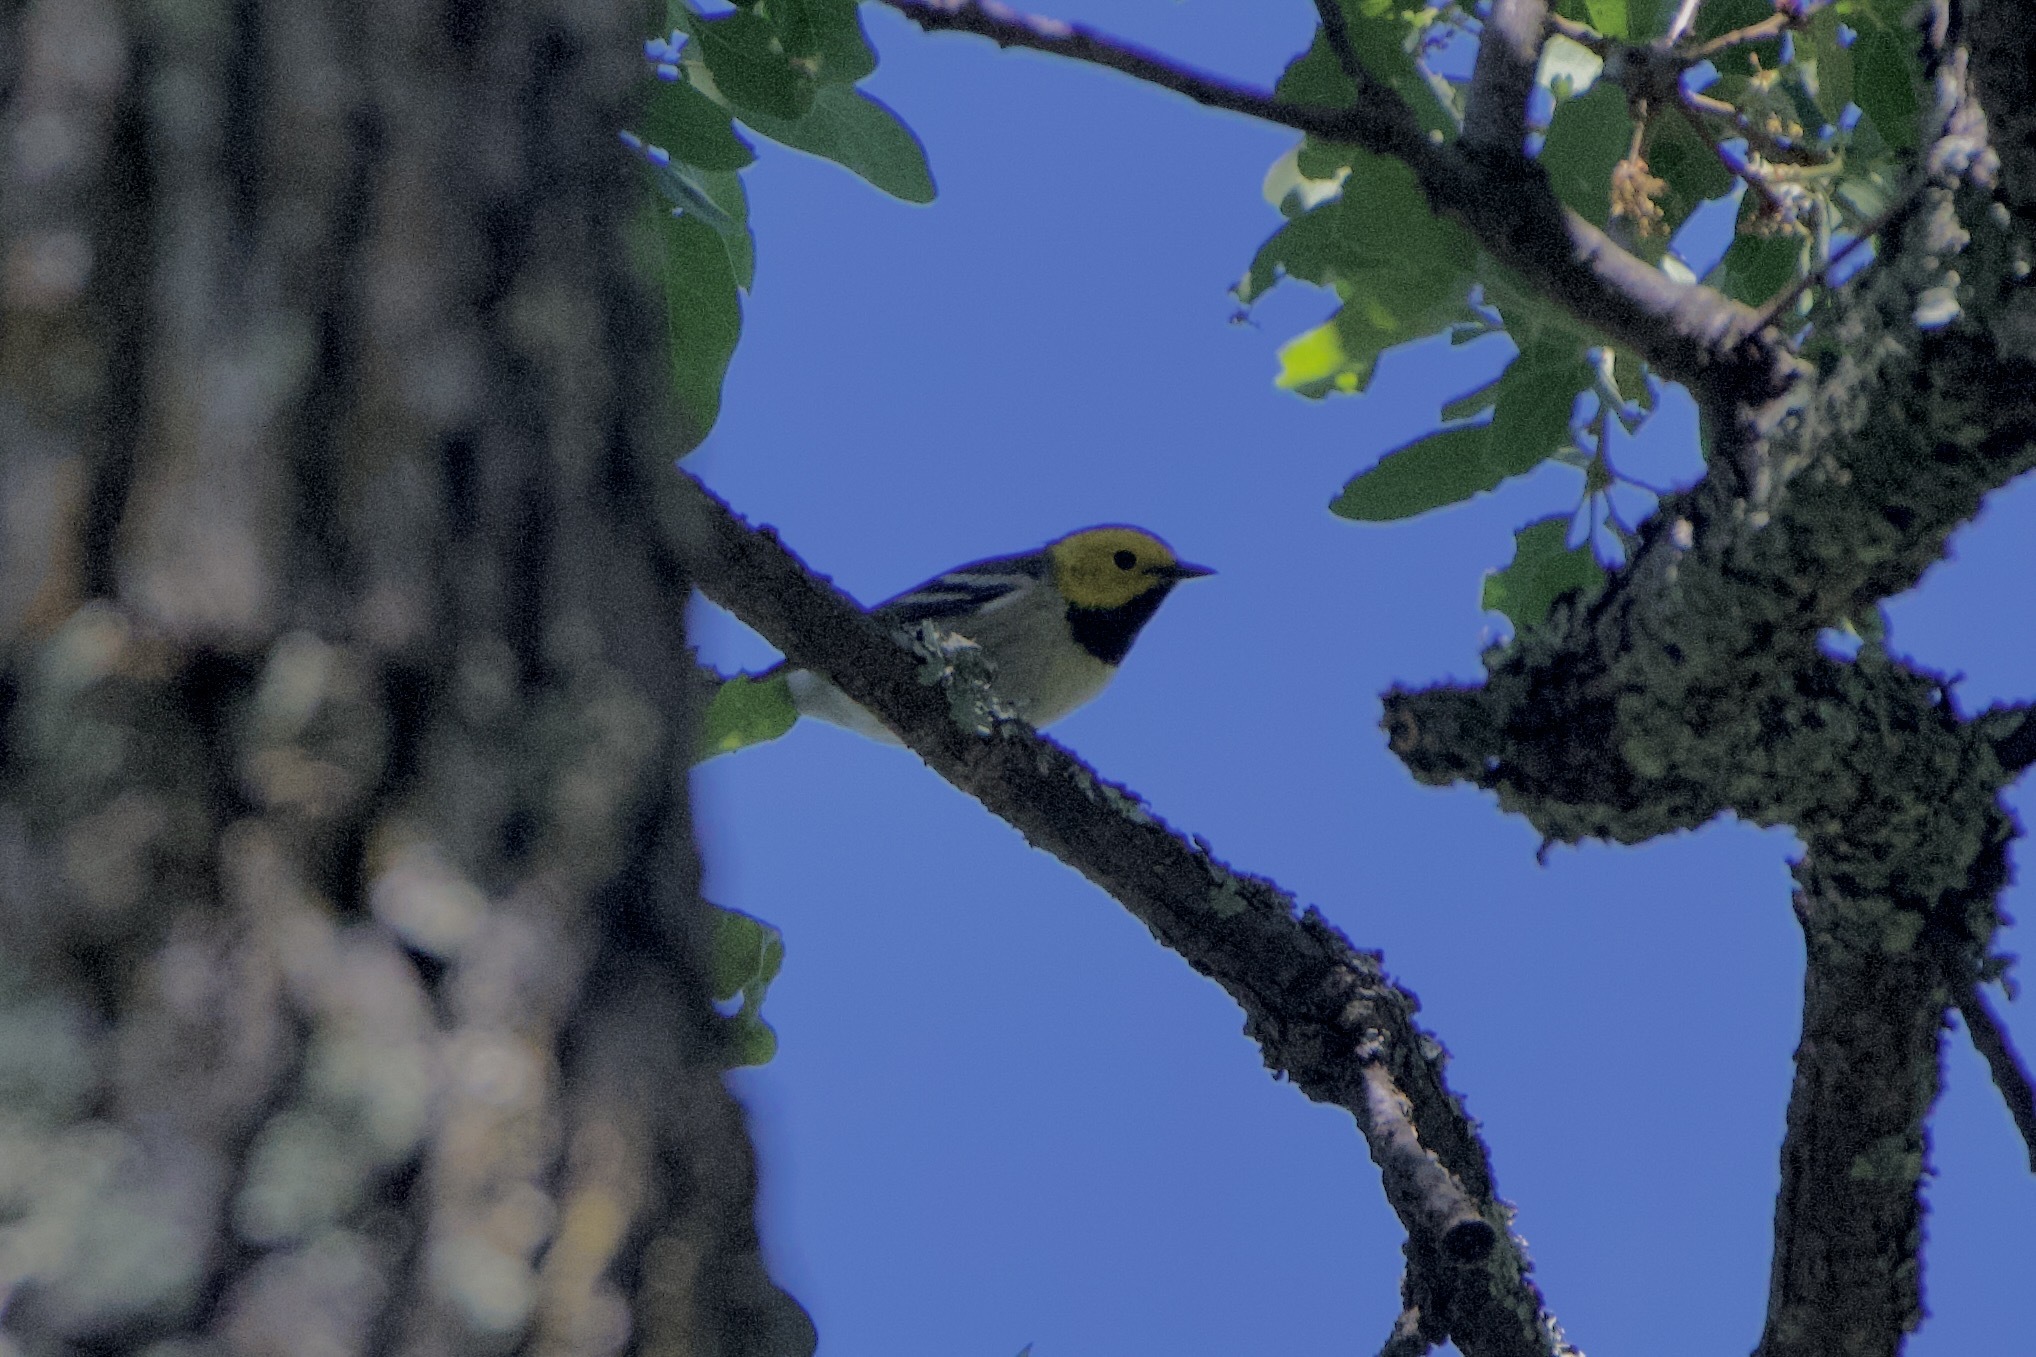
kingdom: Animalia
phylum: Chordata
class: Aves
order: Passeriformes
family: Parulidae
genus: Setophaga
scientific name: Setophaga occidentalis
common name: Hermit warbler
